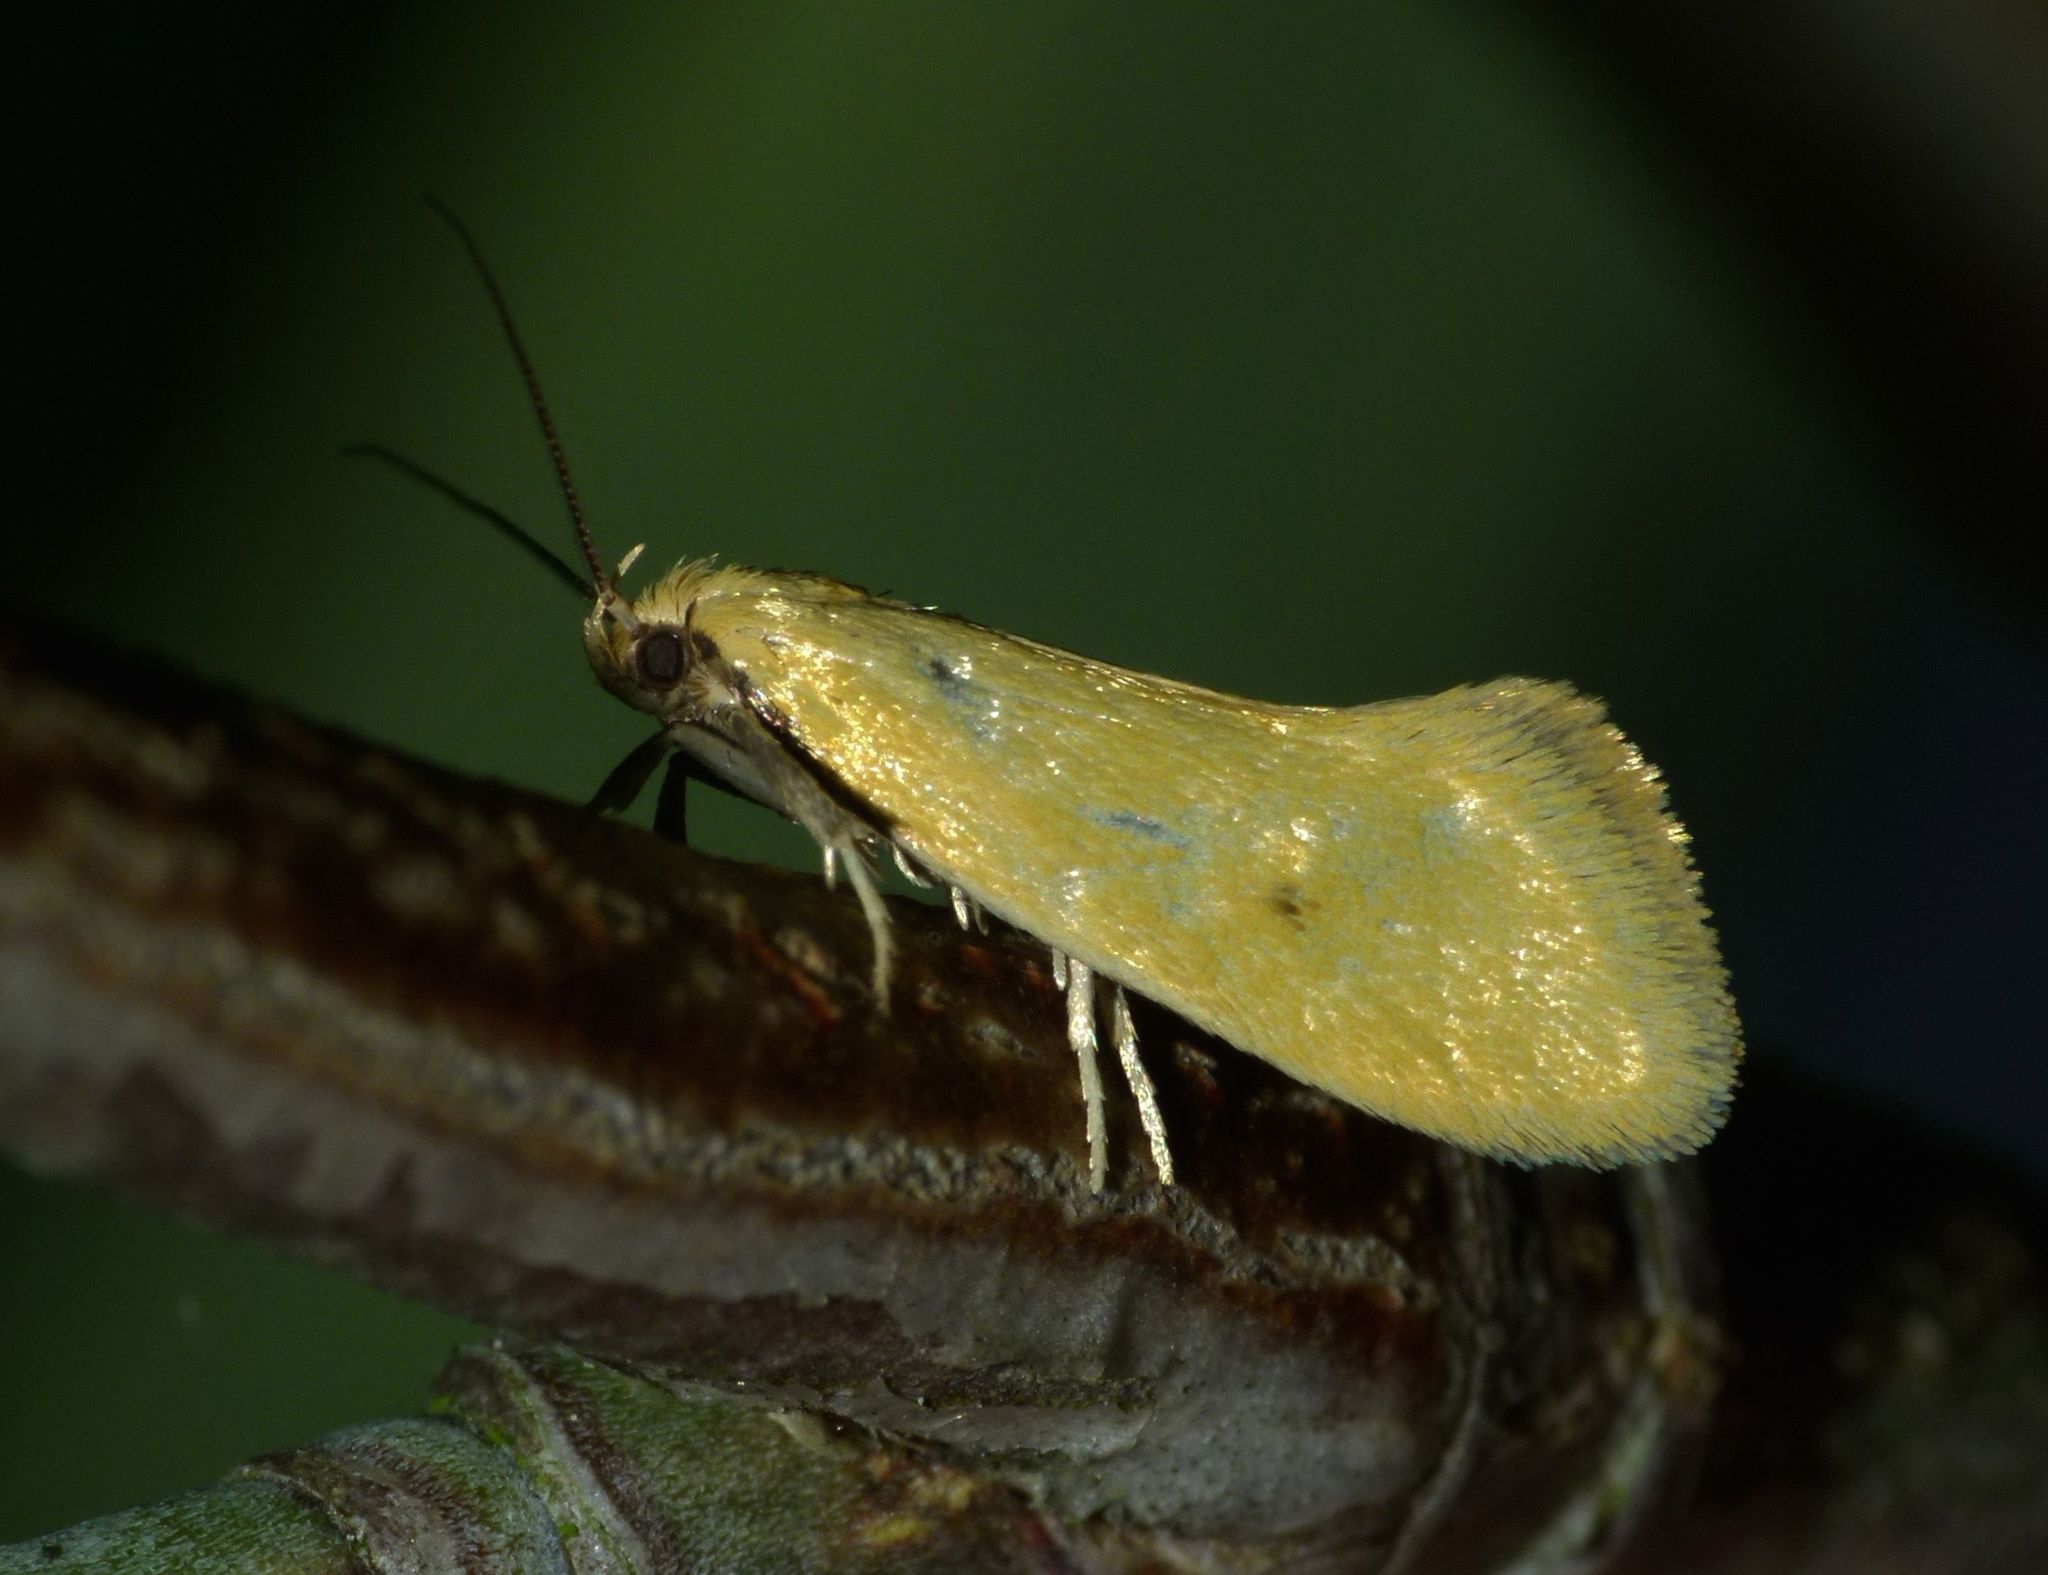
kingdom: Animalia
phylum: Arthropoda
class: Insecta
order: Lepidoptera
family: Oecophoridae
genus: Tingena
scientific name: Tingena grata
